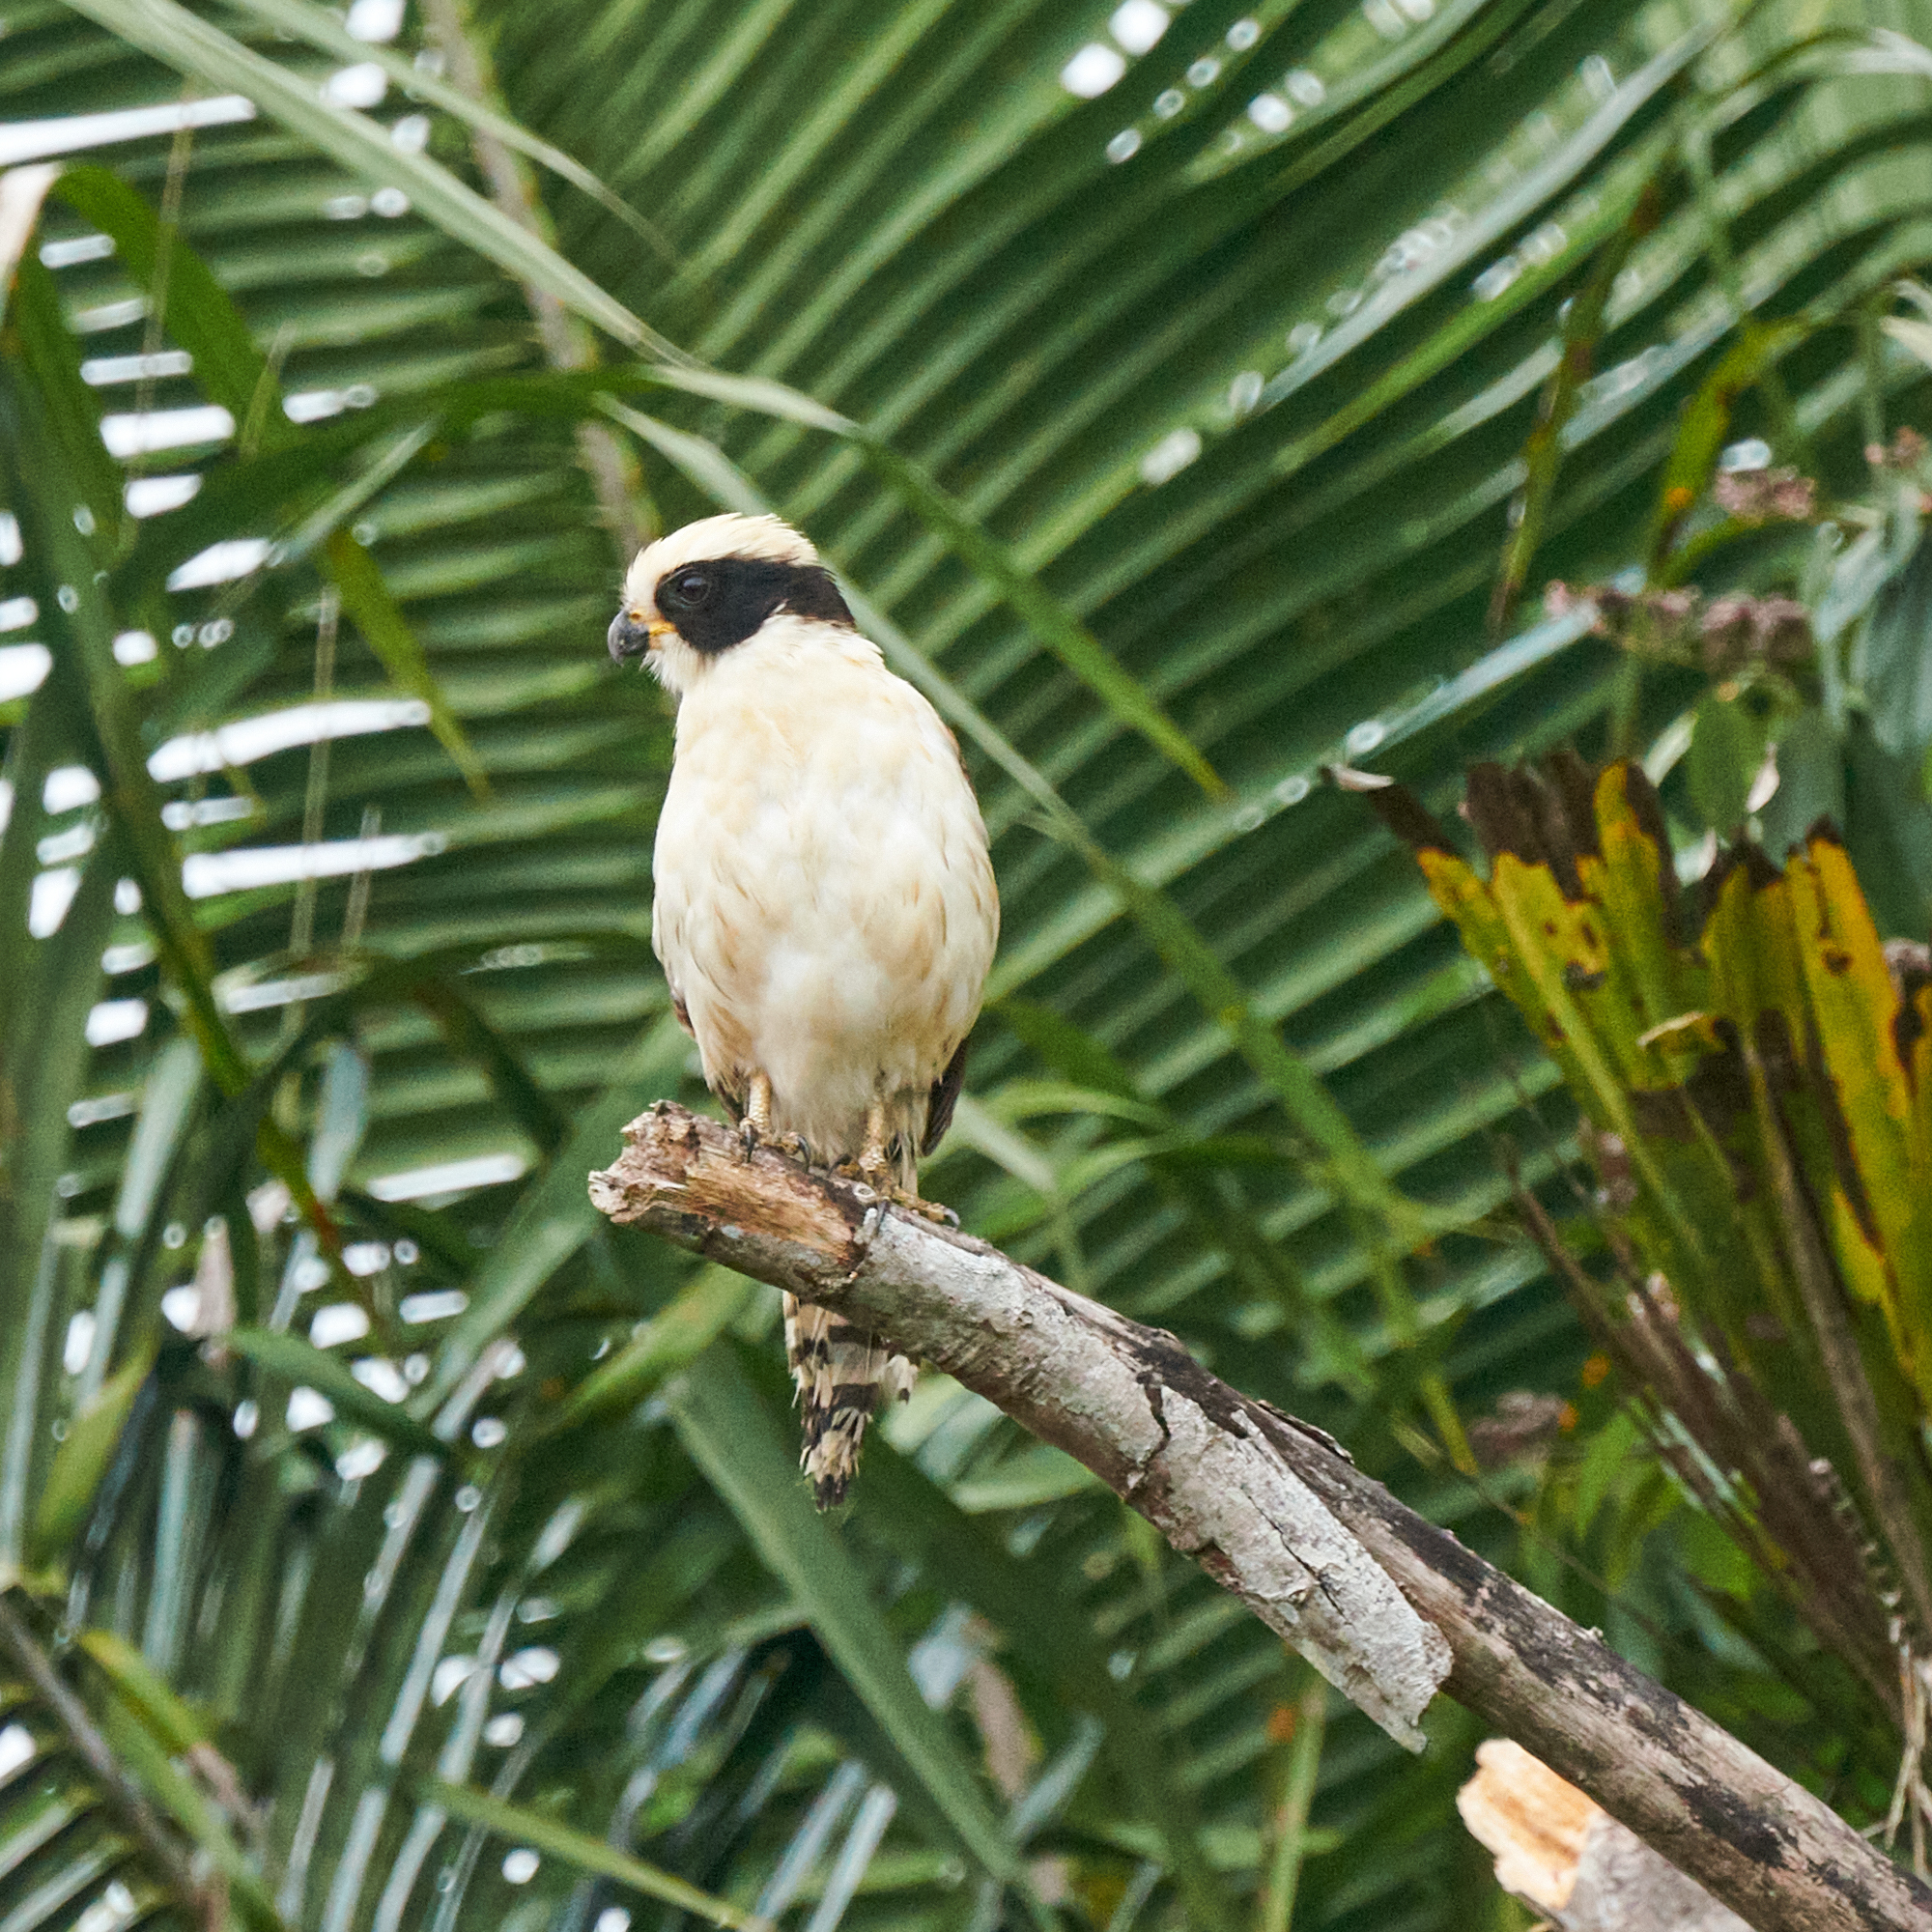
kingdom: Animalia
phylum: Chordata
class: Aves
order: Falconiformes
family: Falconidae
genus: Herpetotheres
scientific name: Herpetotheres cachinnans
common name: Laughing falcon
